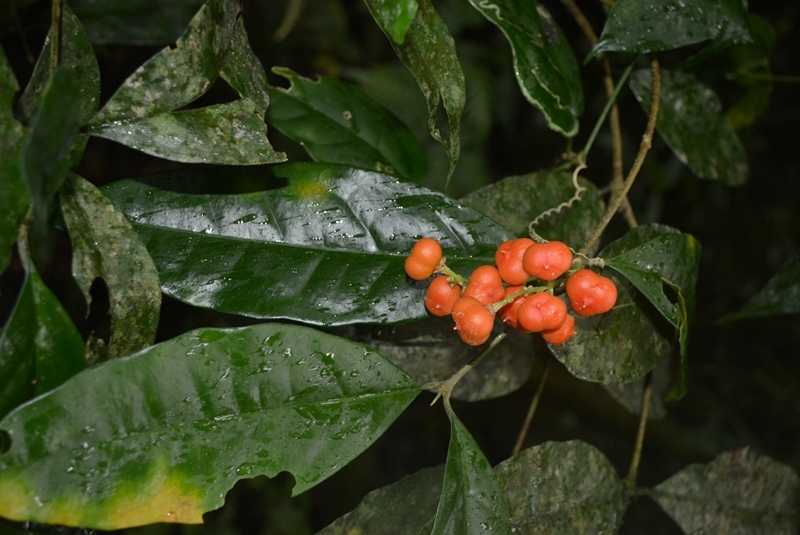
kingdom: Plantae
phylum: Tracheophyta
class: Magnoliopsida
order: Malpighiales
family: Malpighiaceae
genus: Bunchosia
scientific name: Bunchosia biocellata
